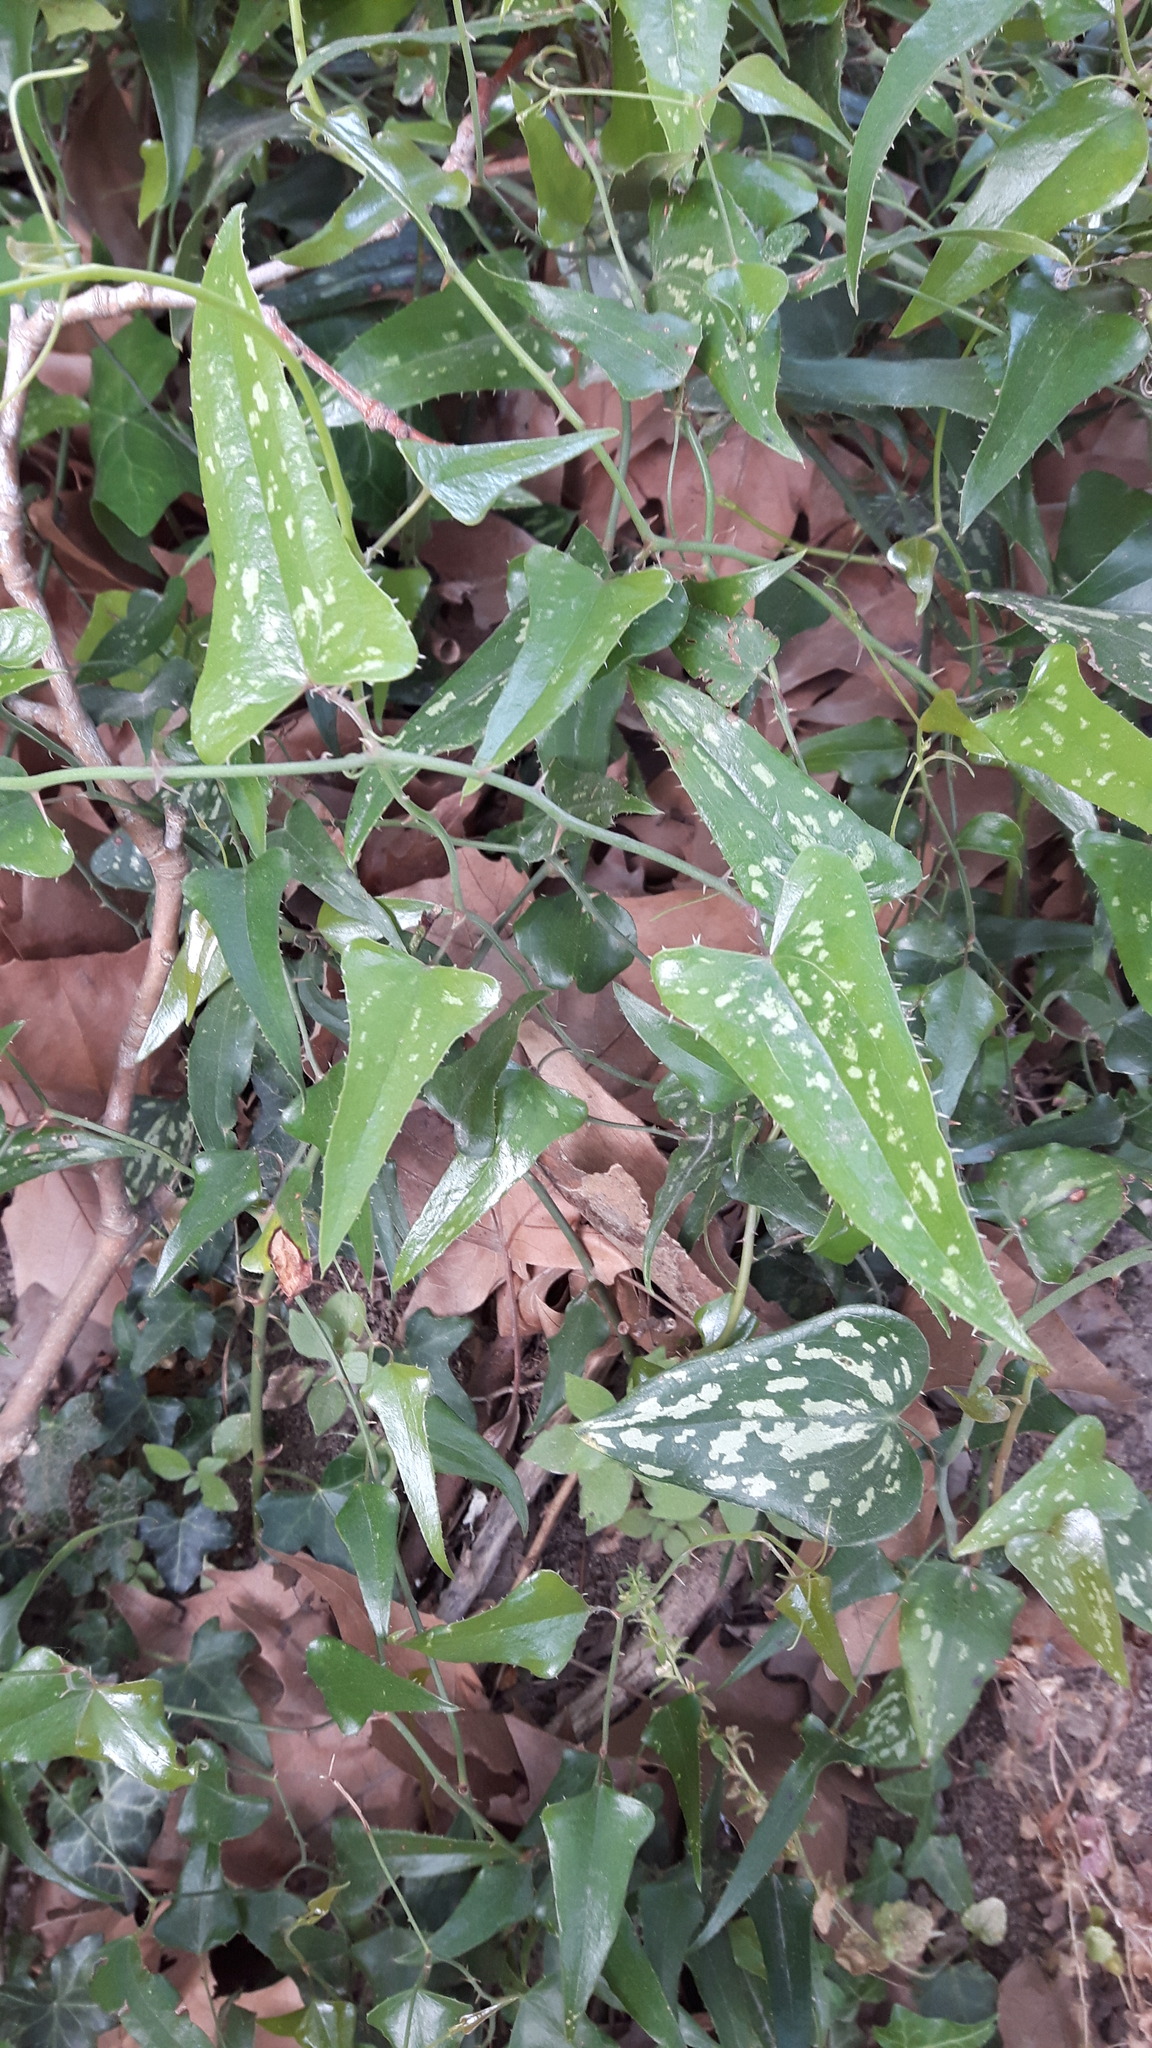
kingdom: Plantae
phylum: Tracheophyta
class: Liliopsida
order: Liliales
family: Smilacaceae
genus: Smilax
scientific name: Smilax aspera
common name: Common smilax
